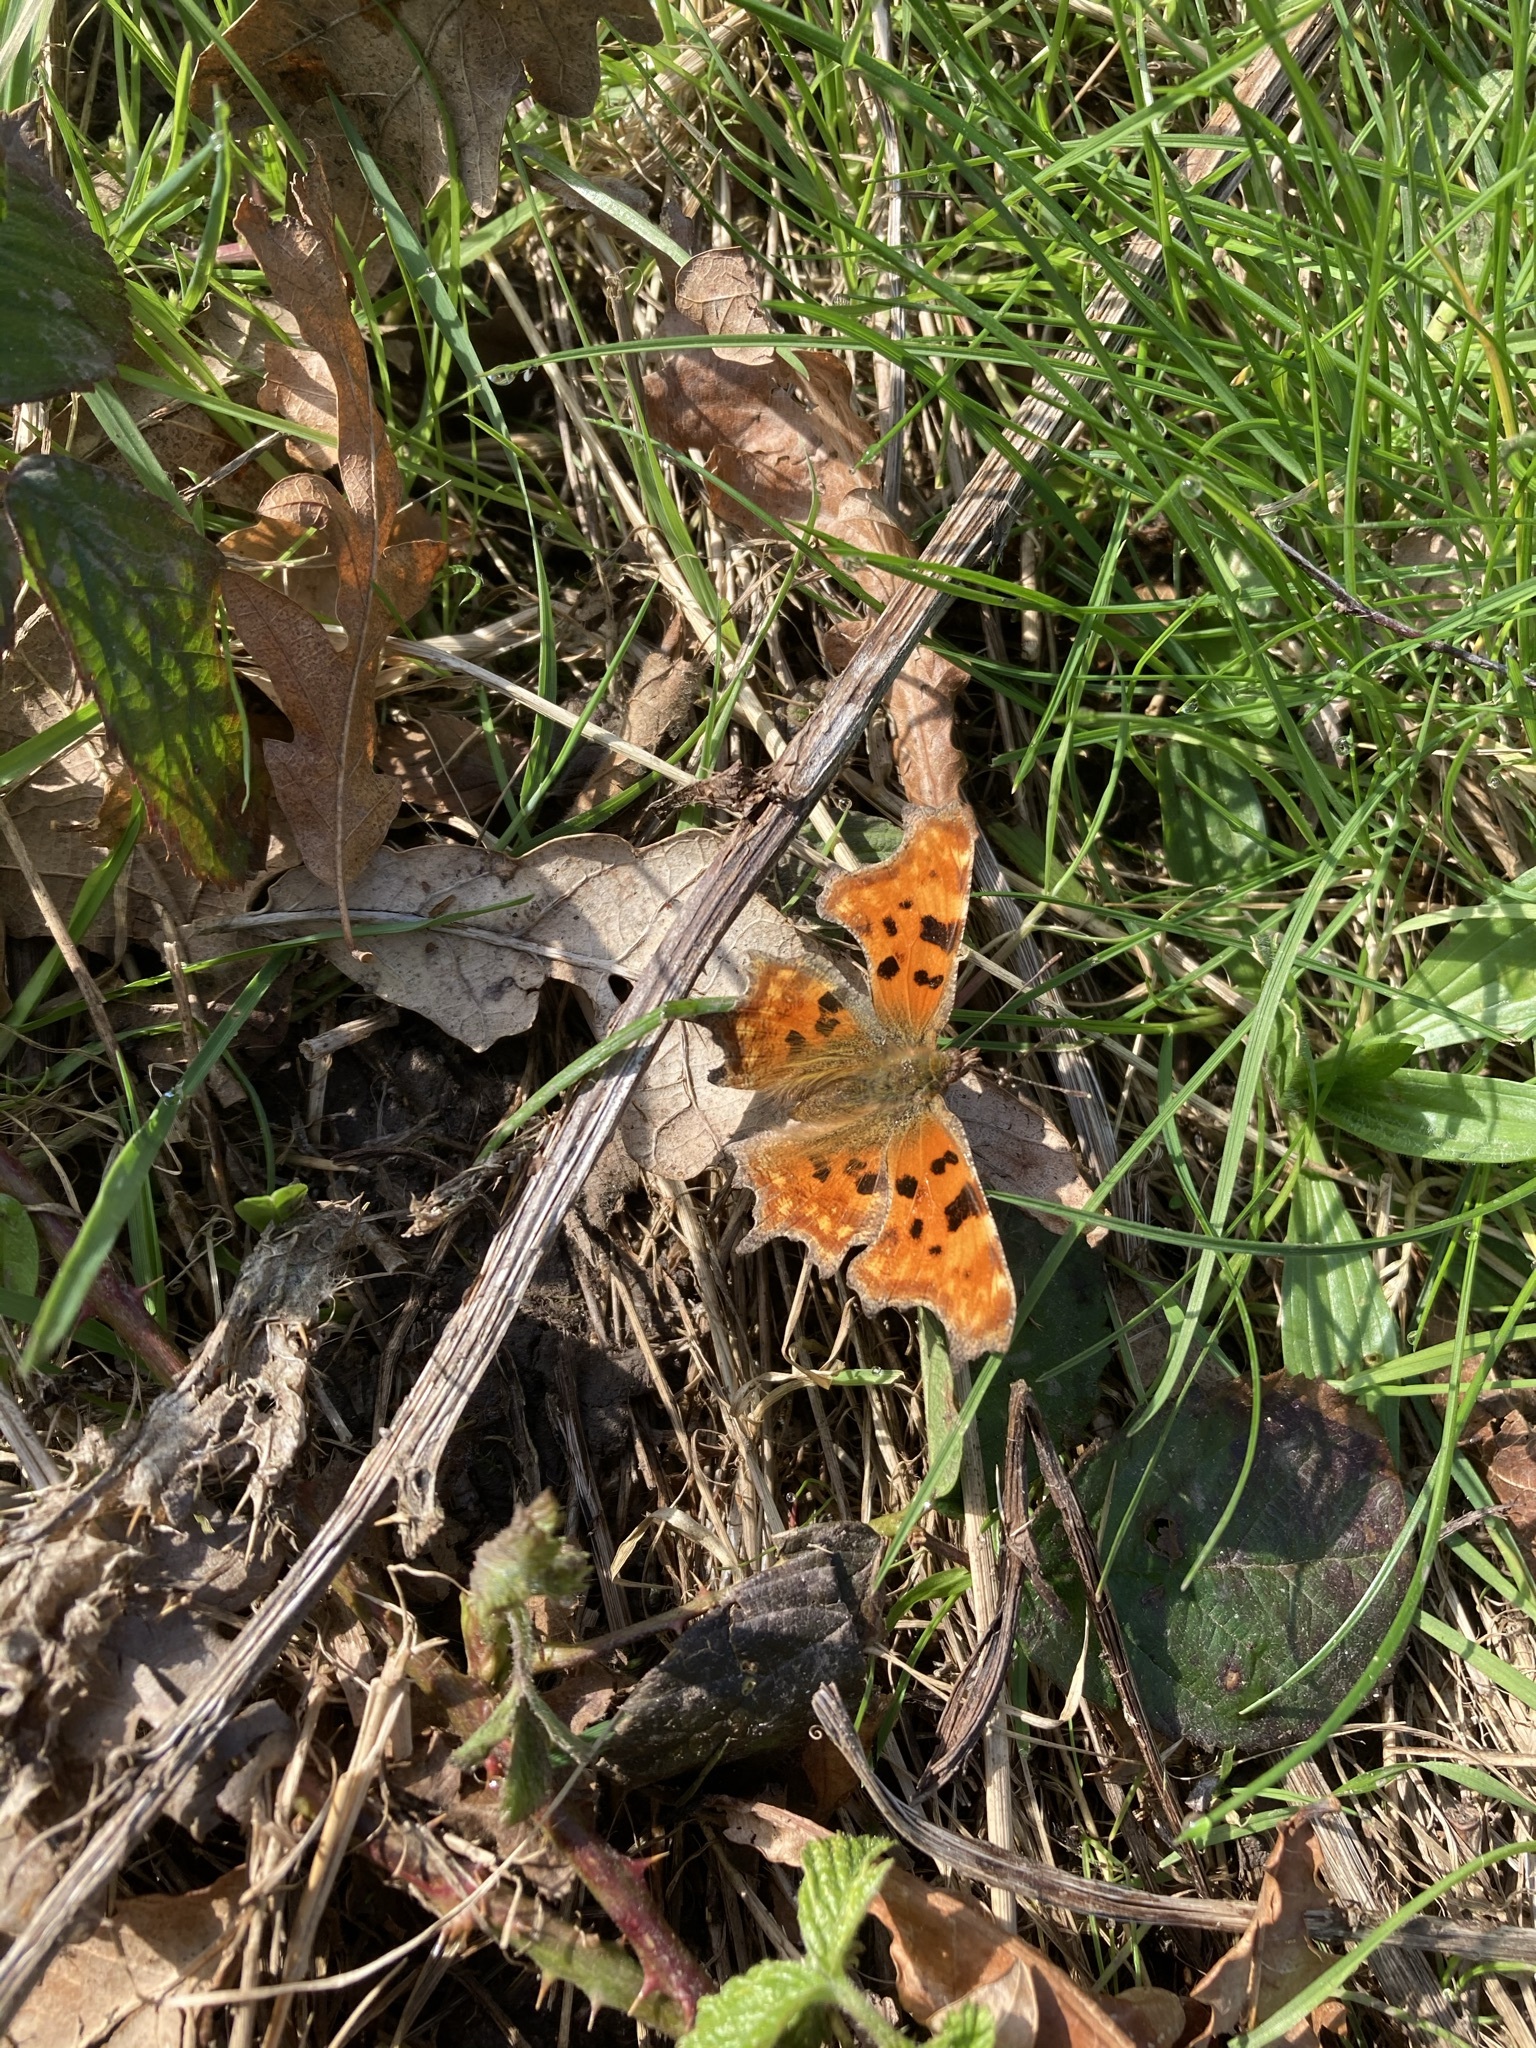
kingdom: Animalia
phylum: Arthropoda
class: Insecta
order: Lepidoptera
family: Nymphalidae
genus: Polygonia
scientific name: Polygonia c-album
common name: Comma
